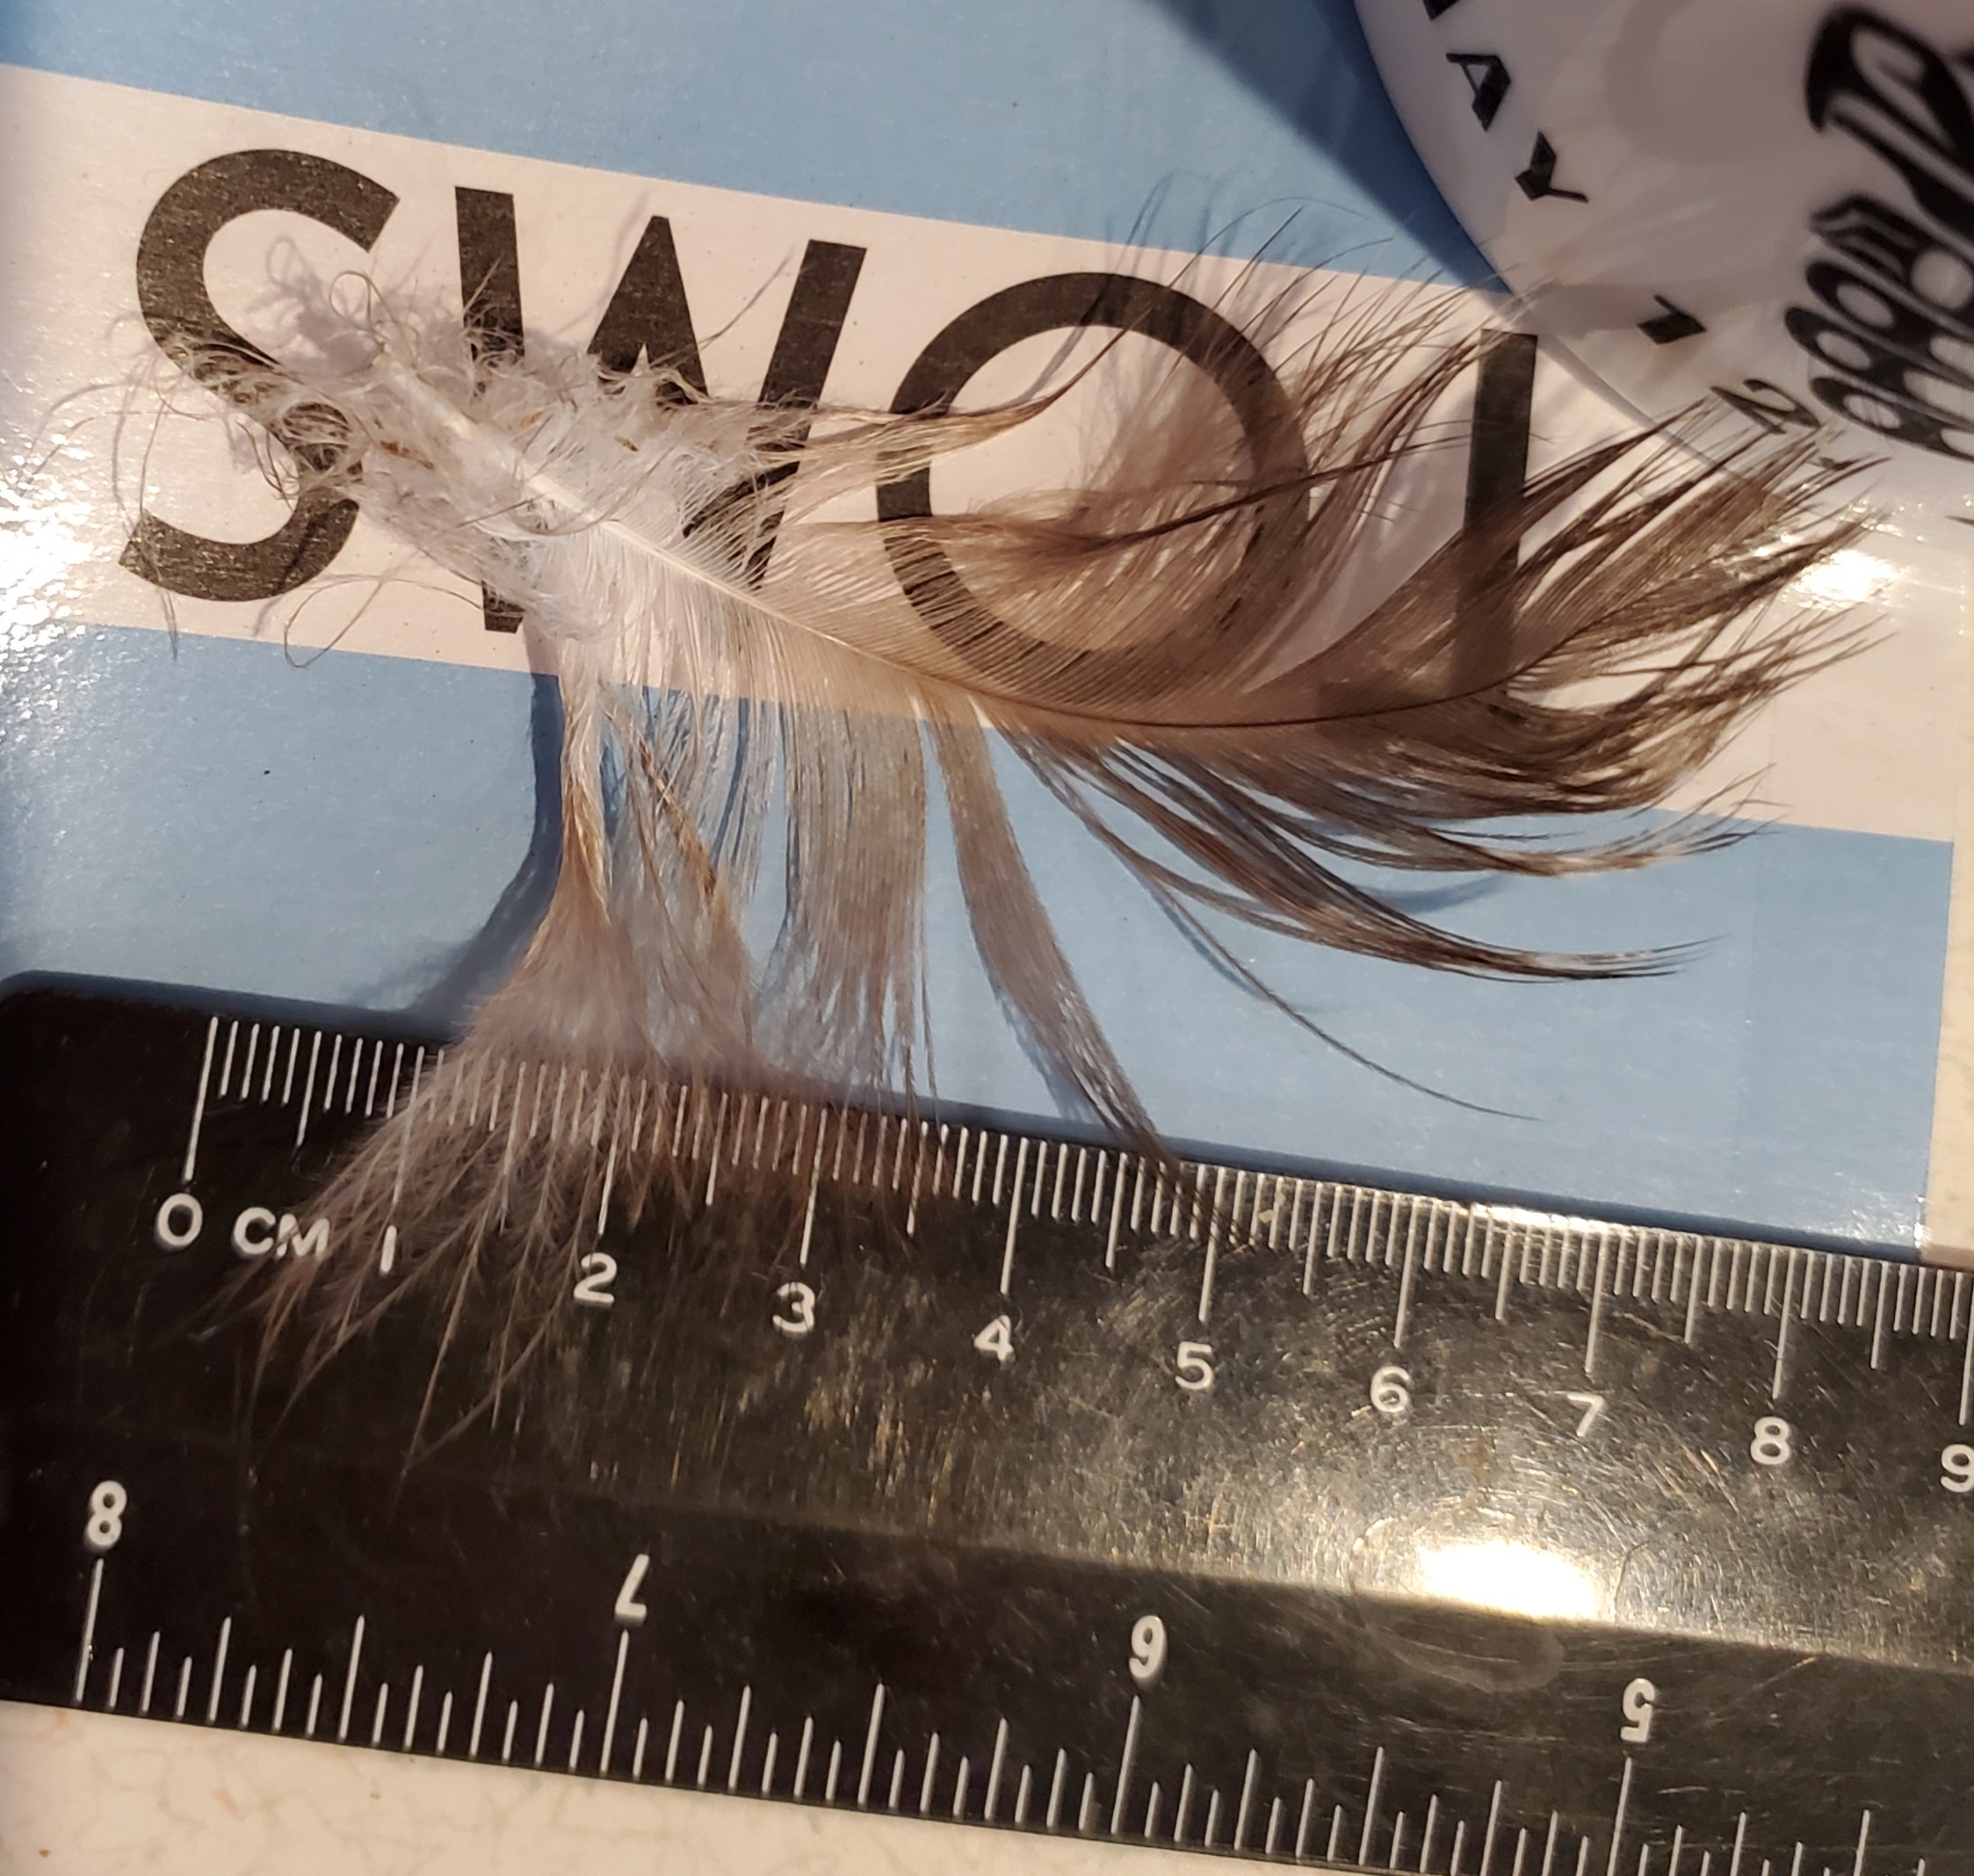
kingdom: Animalia
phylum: Chordata
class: Aves
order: Accipitriformes
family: Cathartidae
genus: Cathartes
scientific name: Cathartes aura
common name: Turkey vulture
